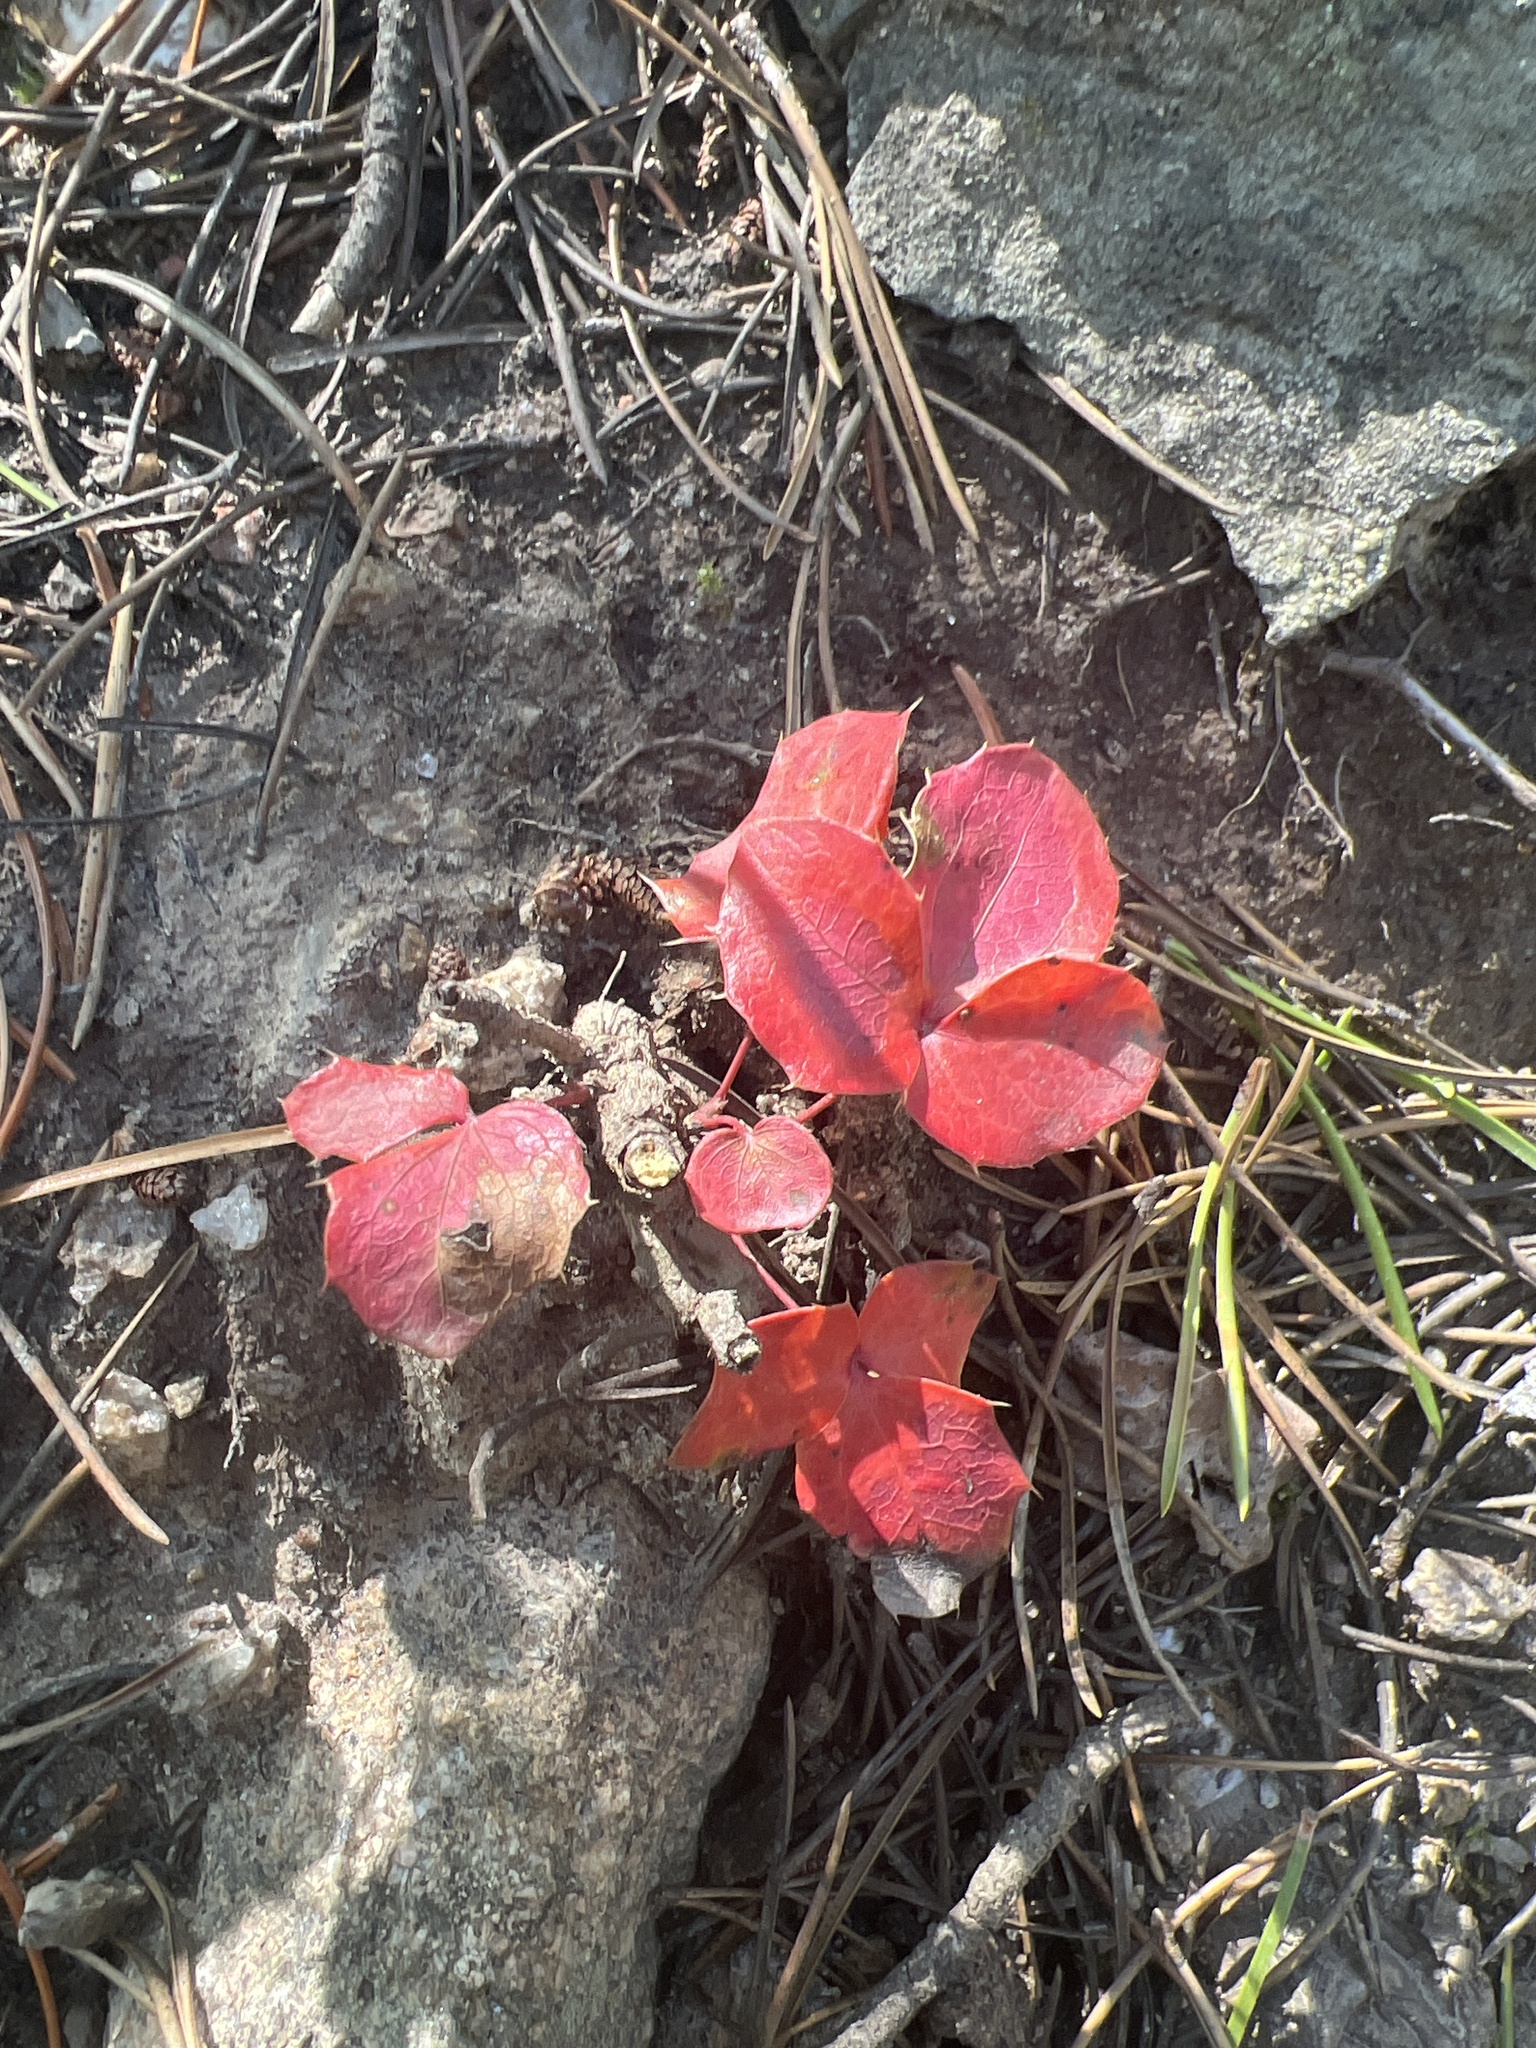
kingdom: Plantae
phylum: Tracheophyta
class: Magnoliopsida
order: Ranunculales
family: Berberidaceae
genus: Mahonia
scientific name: Mahonia repens
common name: Creeping oregon-grape
